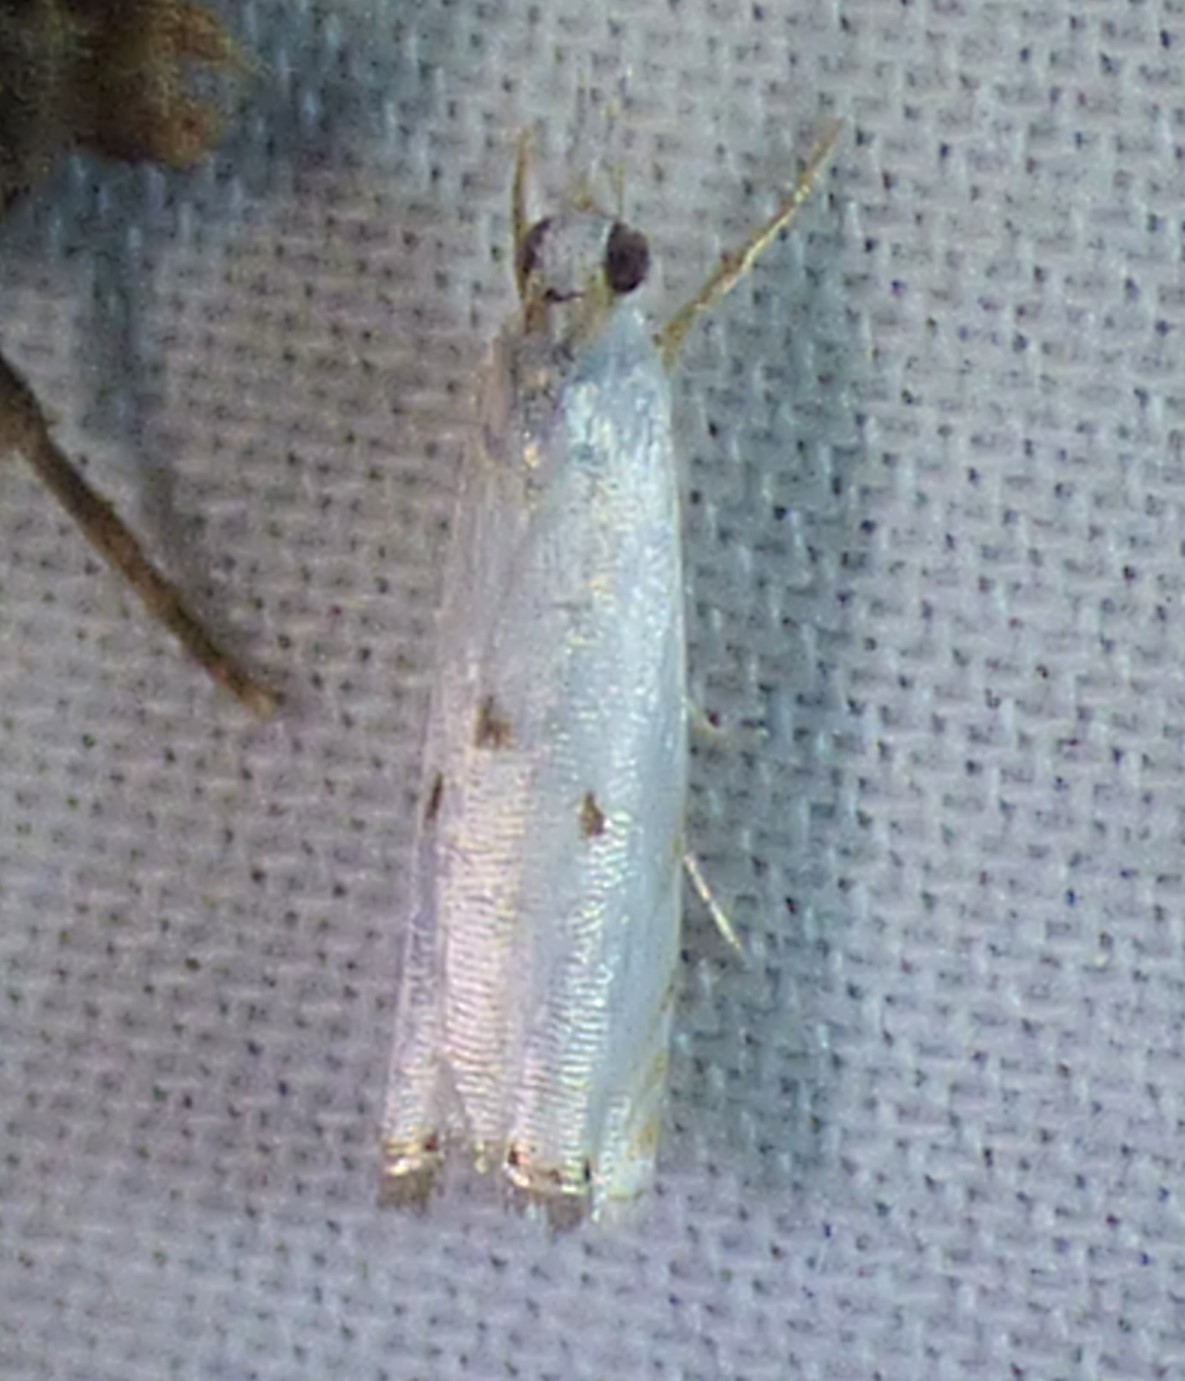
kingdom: Animalia
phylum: Arthropoda
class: Insecta
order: Lepidoptera
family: Crambidae
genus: Microcrambus
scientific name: Microcrambus biguttellus
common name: Gold-stripe grass-veneer moth
